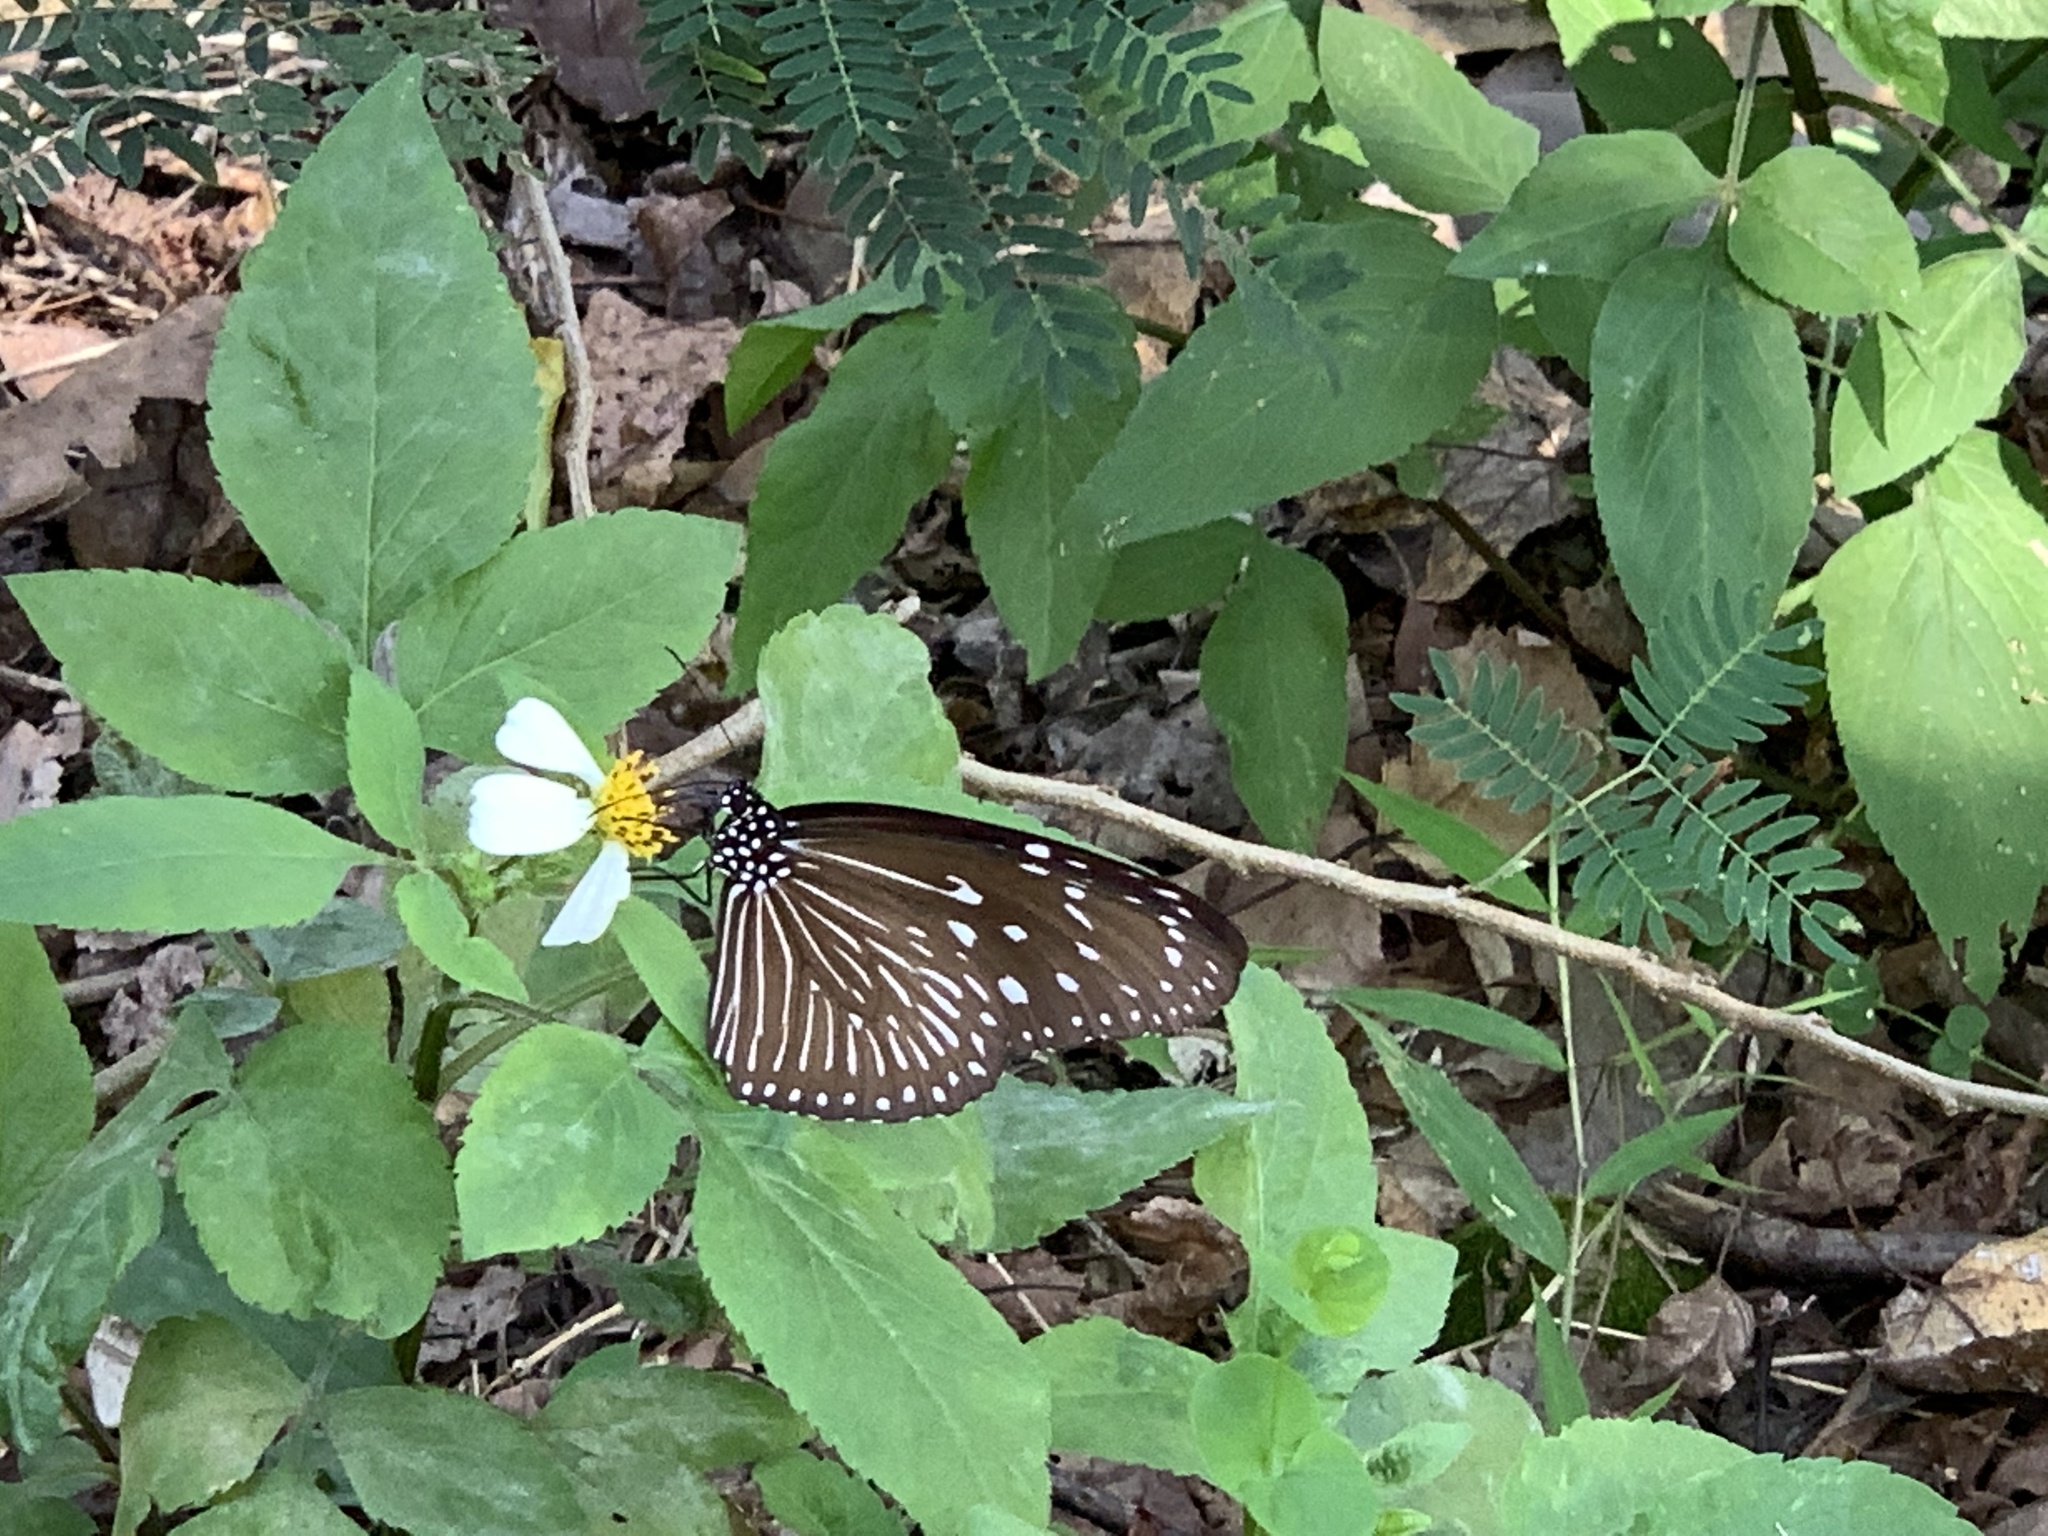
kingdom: Animalia
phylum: Arthropoda
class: Insecta
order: Lepidoptera
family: Nymphalidae
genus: Euploea
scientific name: Euploea mulciber
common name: Striped blue crow butterfly
